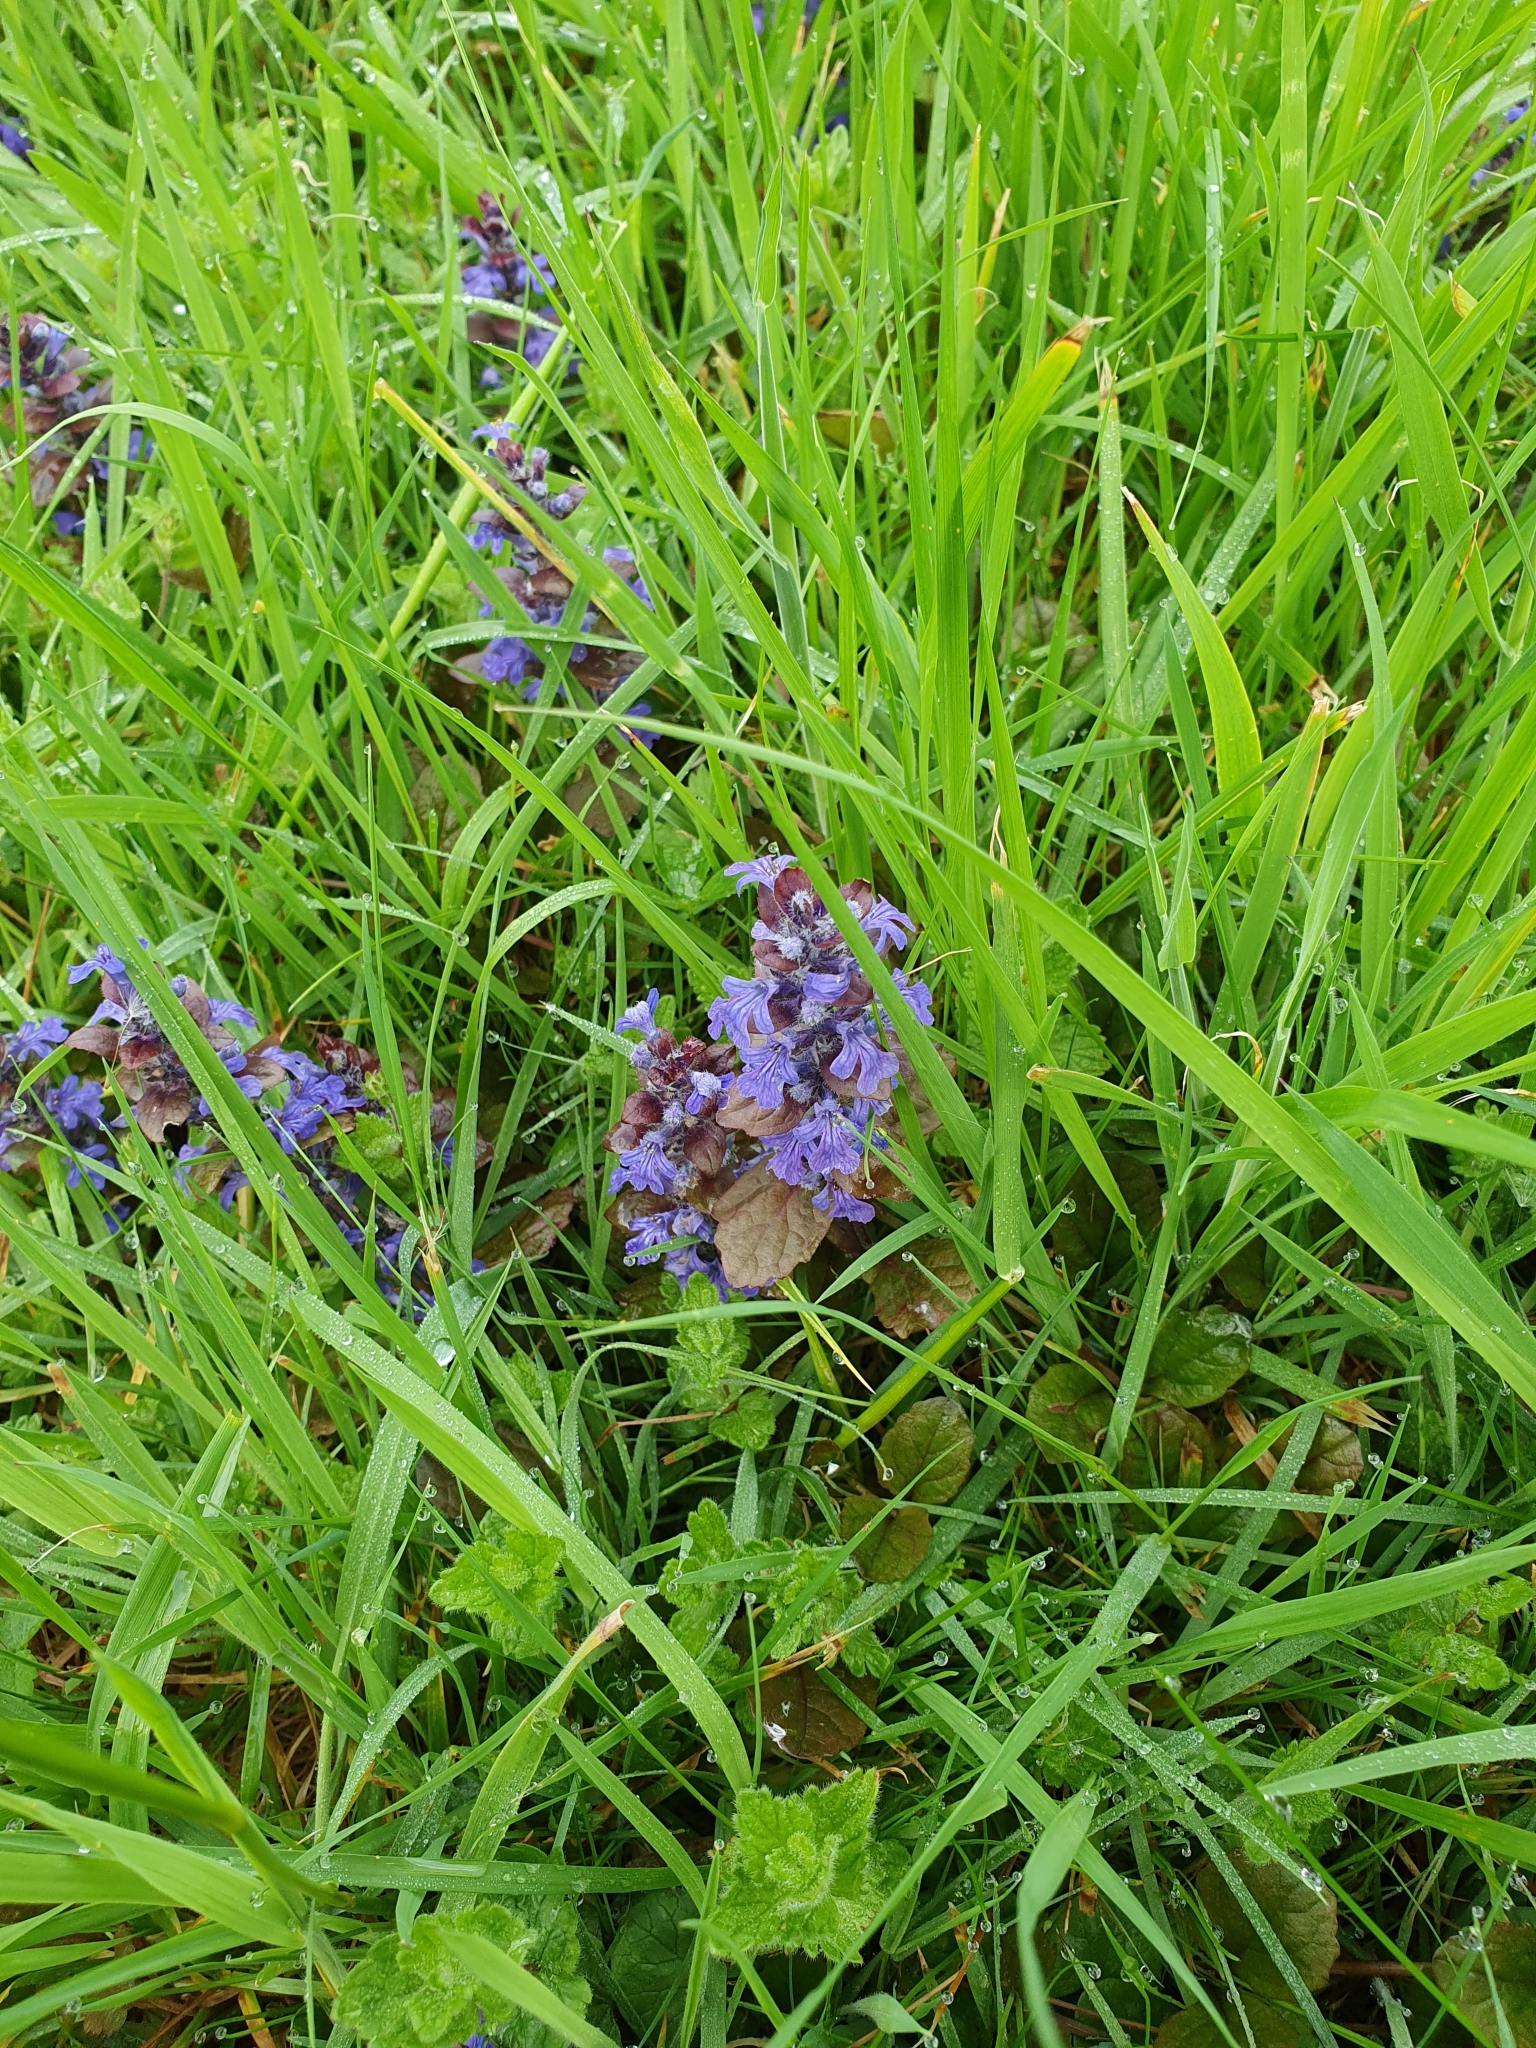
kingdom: Plantae
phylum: Tracheophyta
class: Magnoliopsida
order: Lamiales
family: Lamiaceae
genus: Ajuga
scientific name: Ajuga reptans
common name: Bugle
